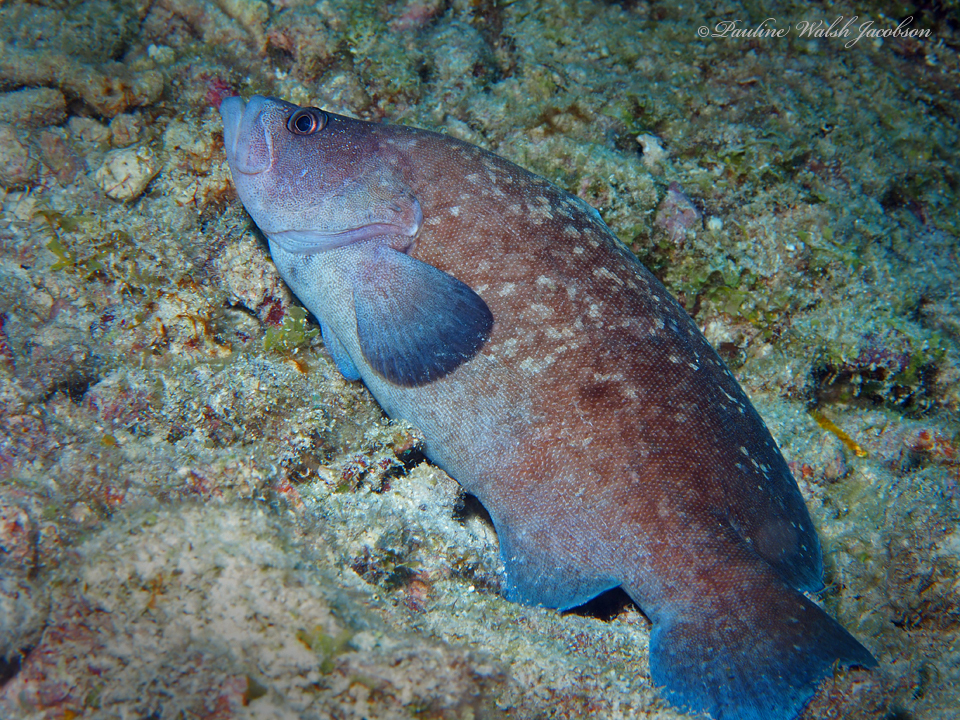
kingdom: Animalia
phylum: Chordata
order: Perciformes
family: Serranidae
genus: Rypticus
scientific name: Rypticus saponaceus
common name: Soapfish
